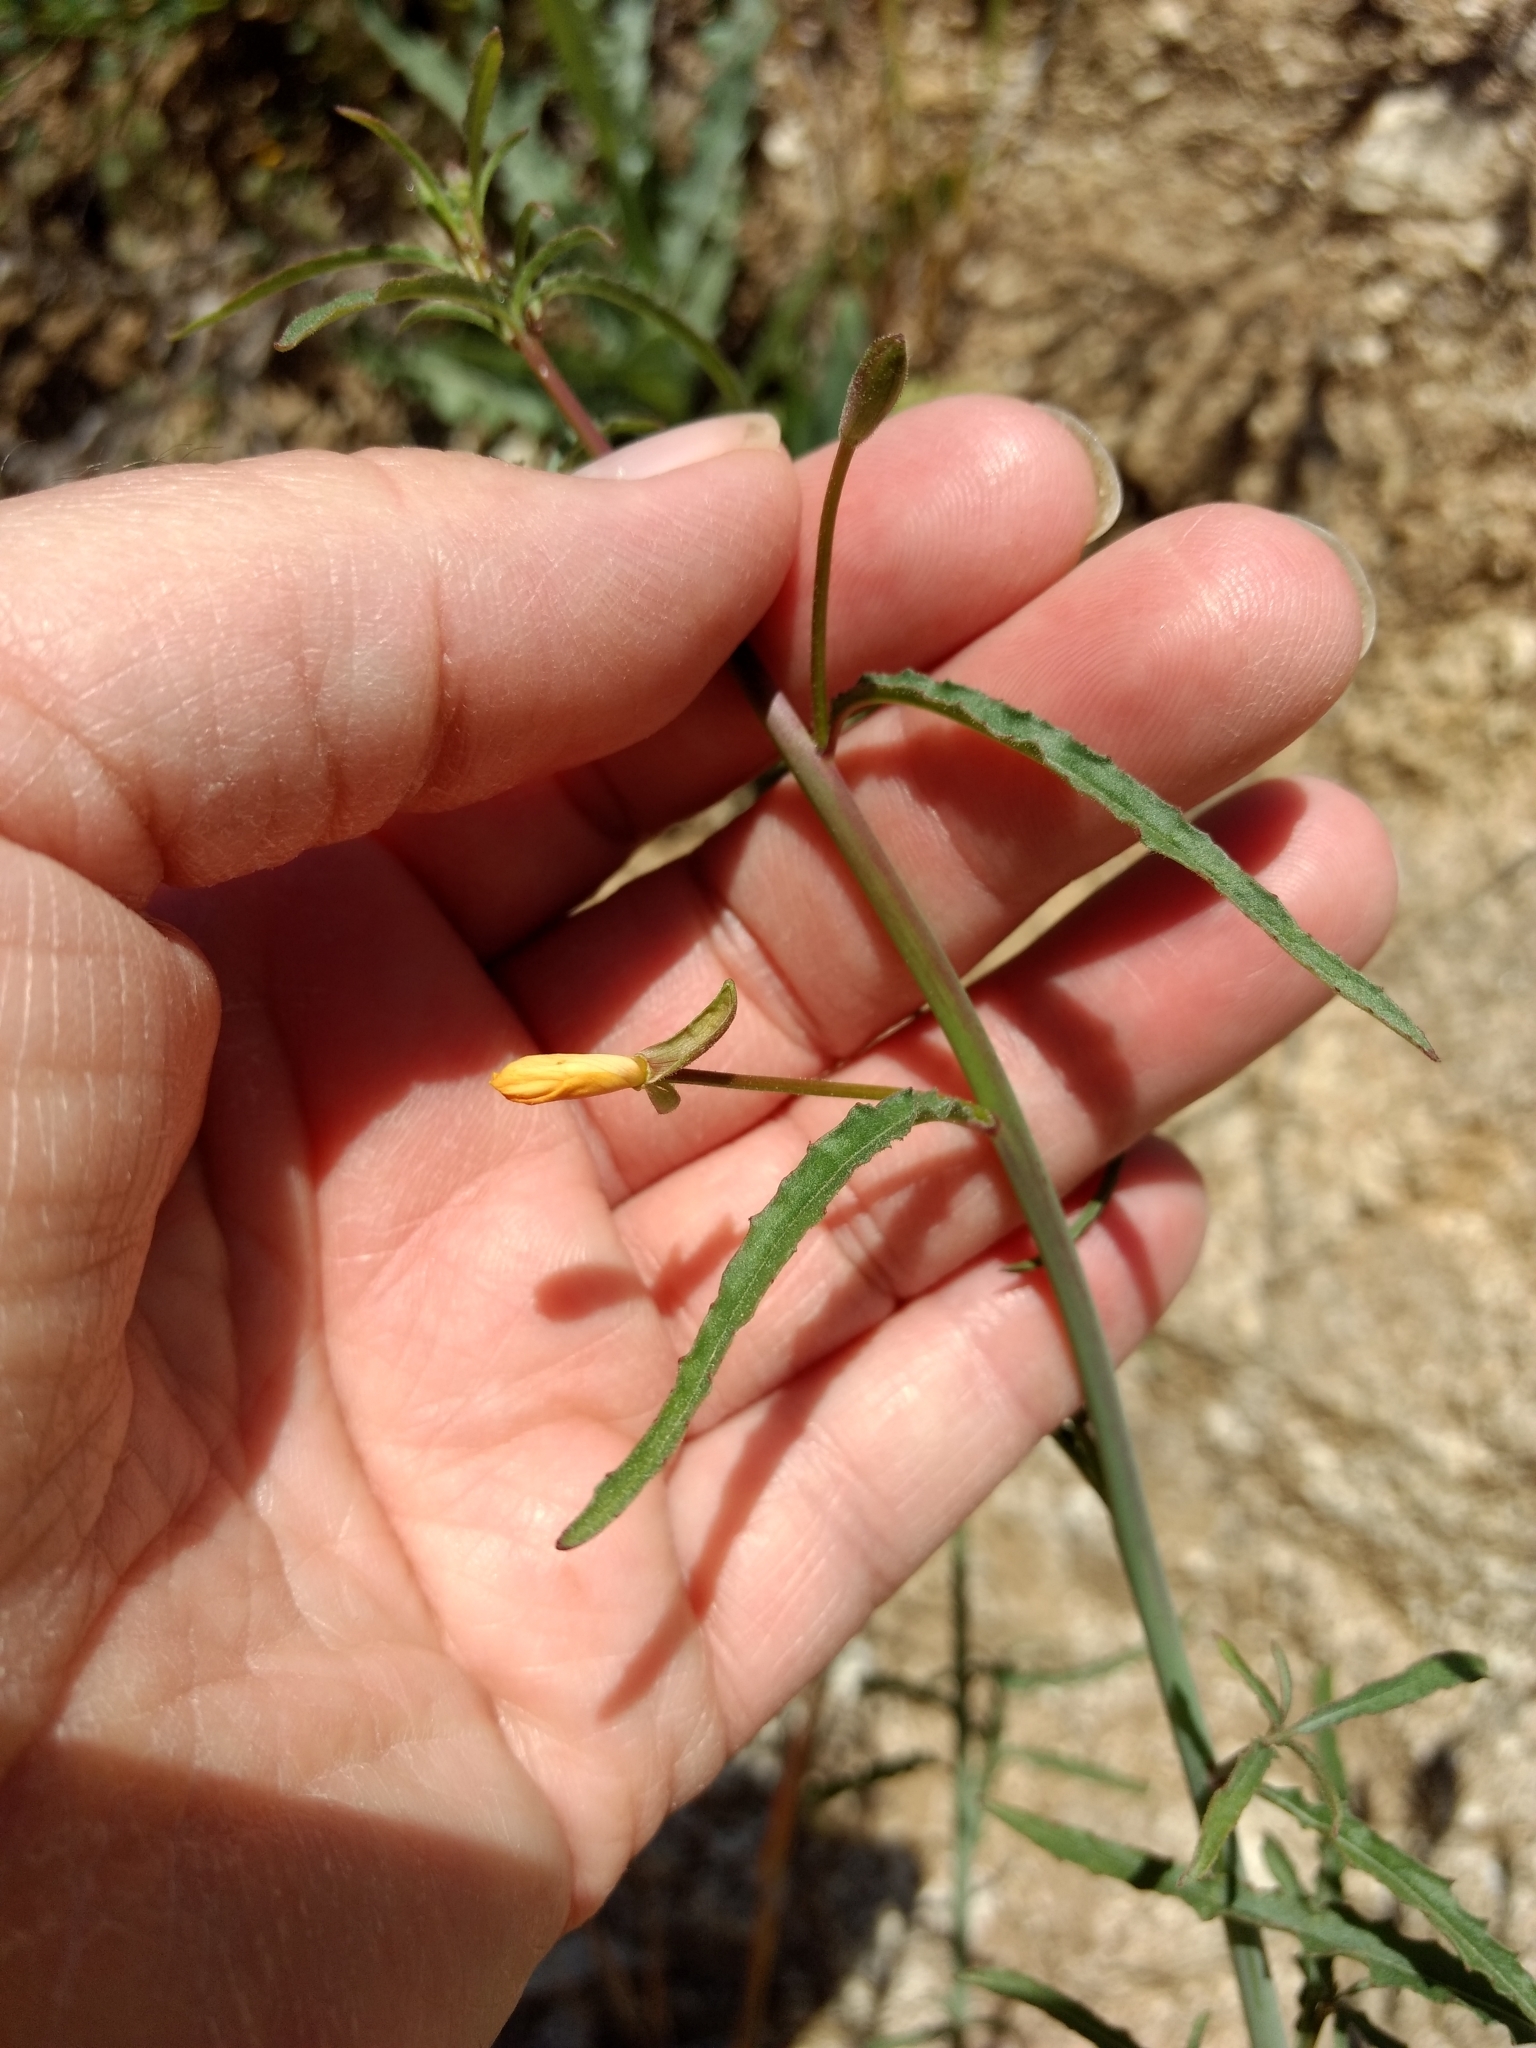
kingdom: Plantae
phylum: Tracheophyta
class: Magnoliopsida
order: Myrtales
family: Onagraceae
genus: Eulobus
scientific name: Eulobus californicus
